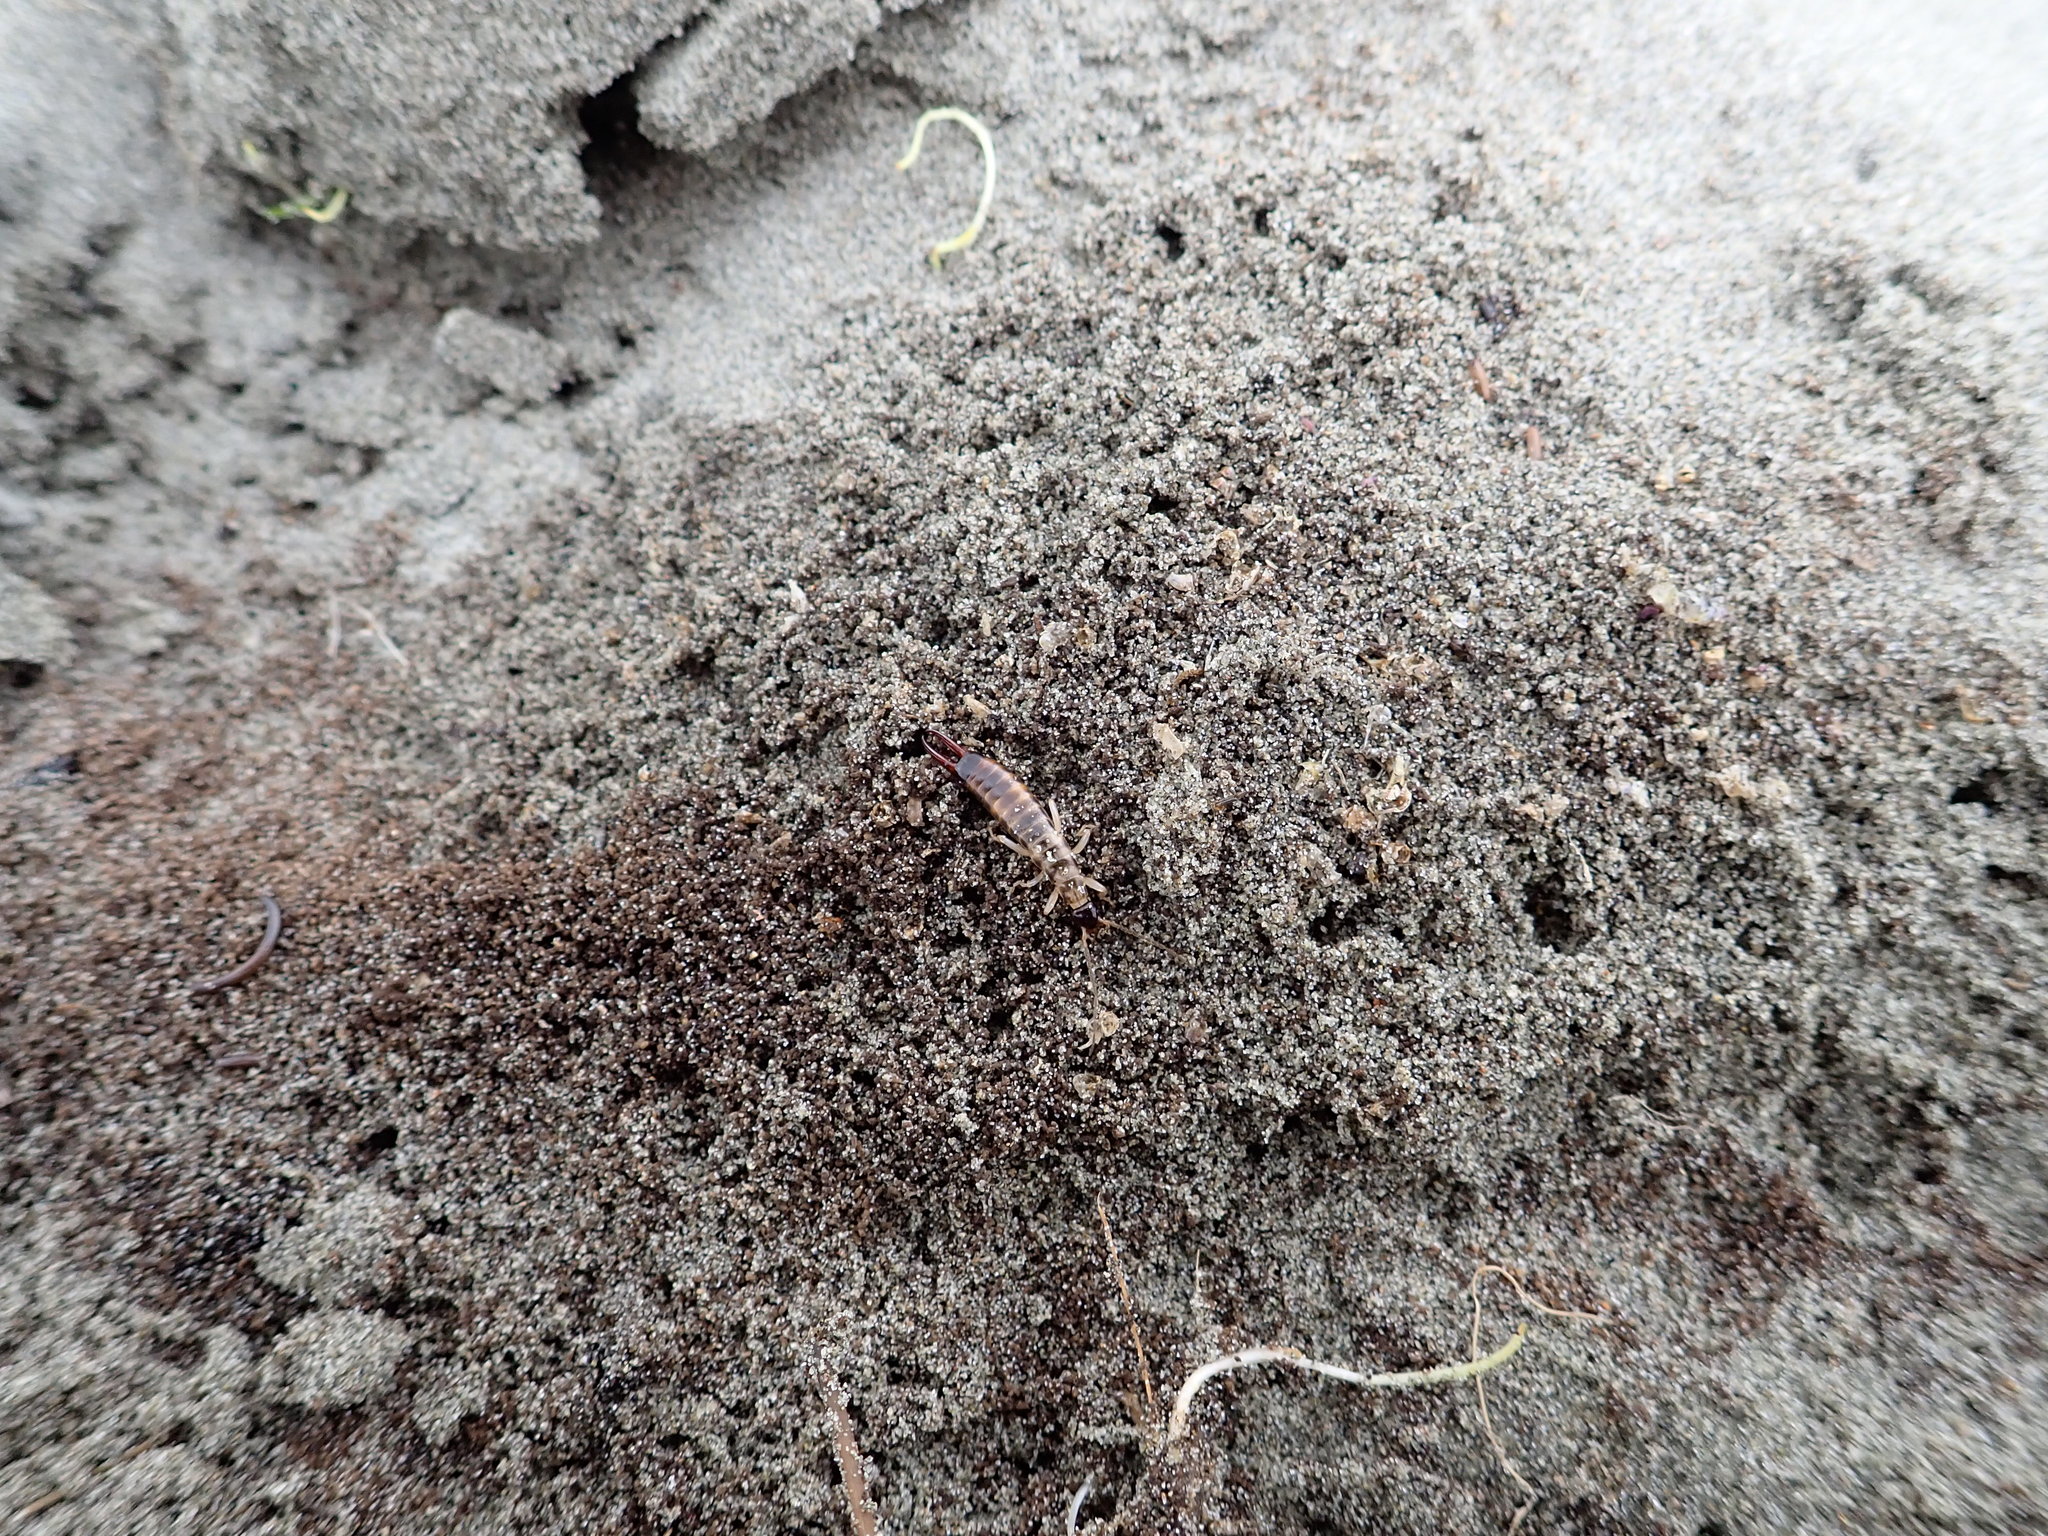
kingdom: Animalia
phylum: Arthropoda
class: Insecta
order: Dermaptera
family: Anisolabididae
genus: Anisolabis
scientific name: Anisolabis littorea
